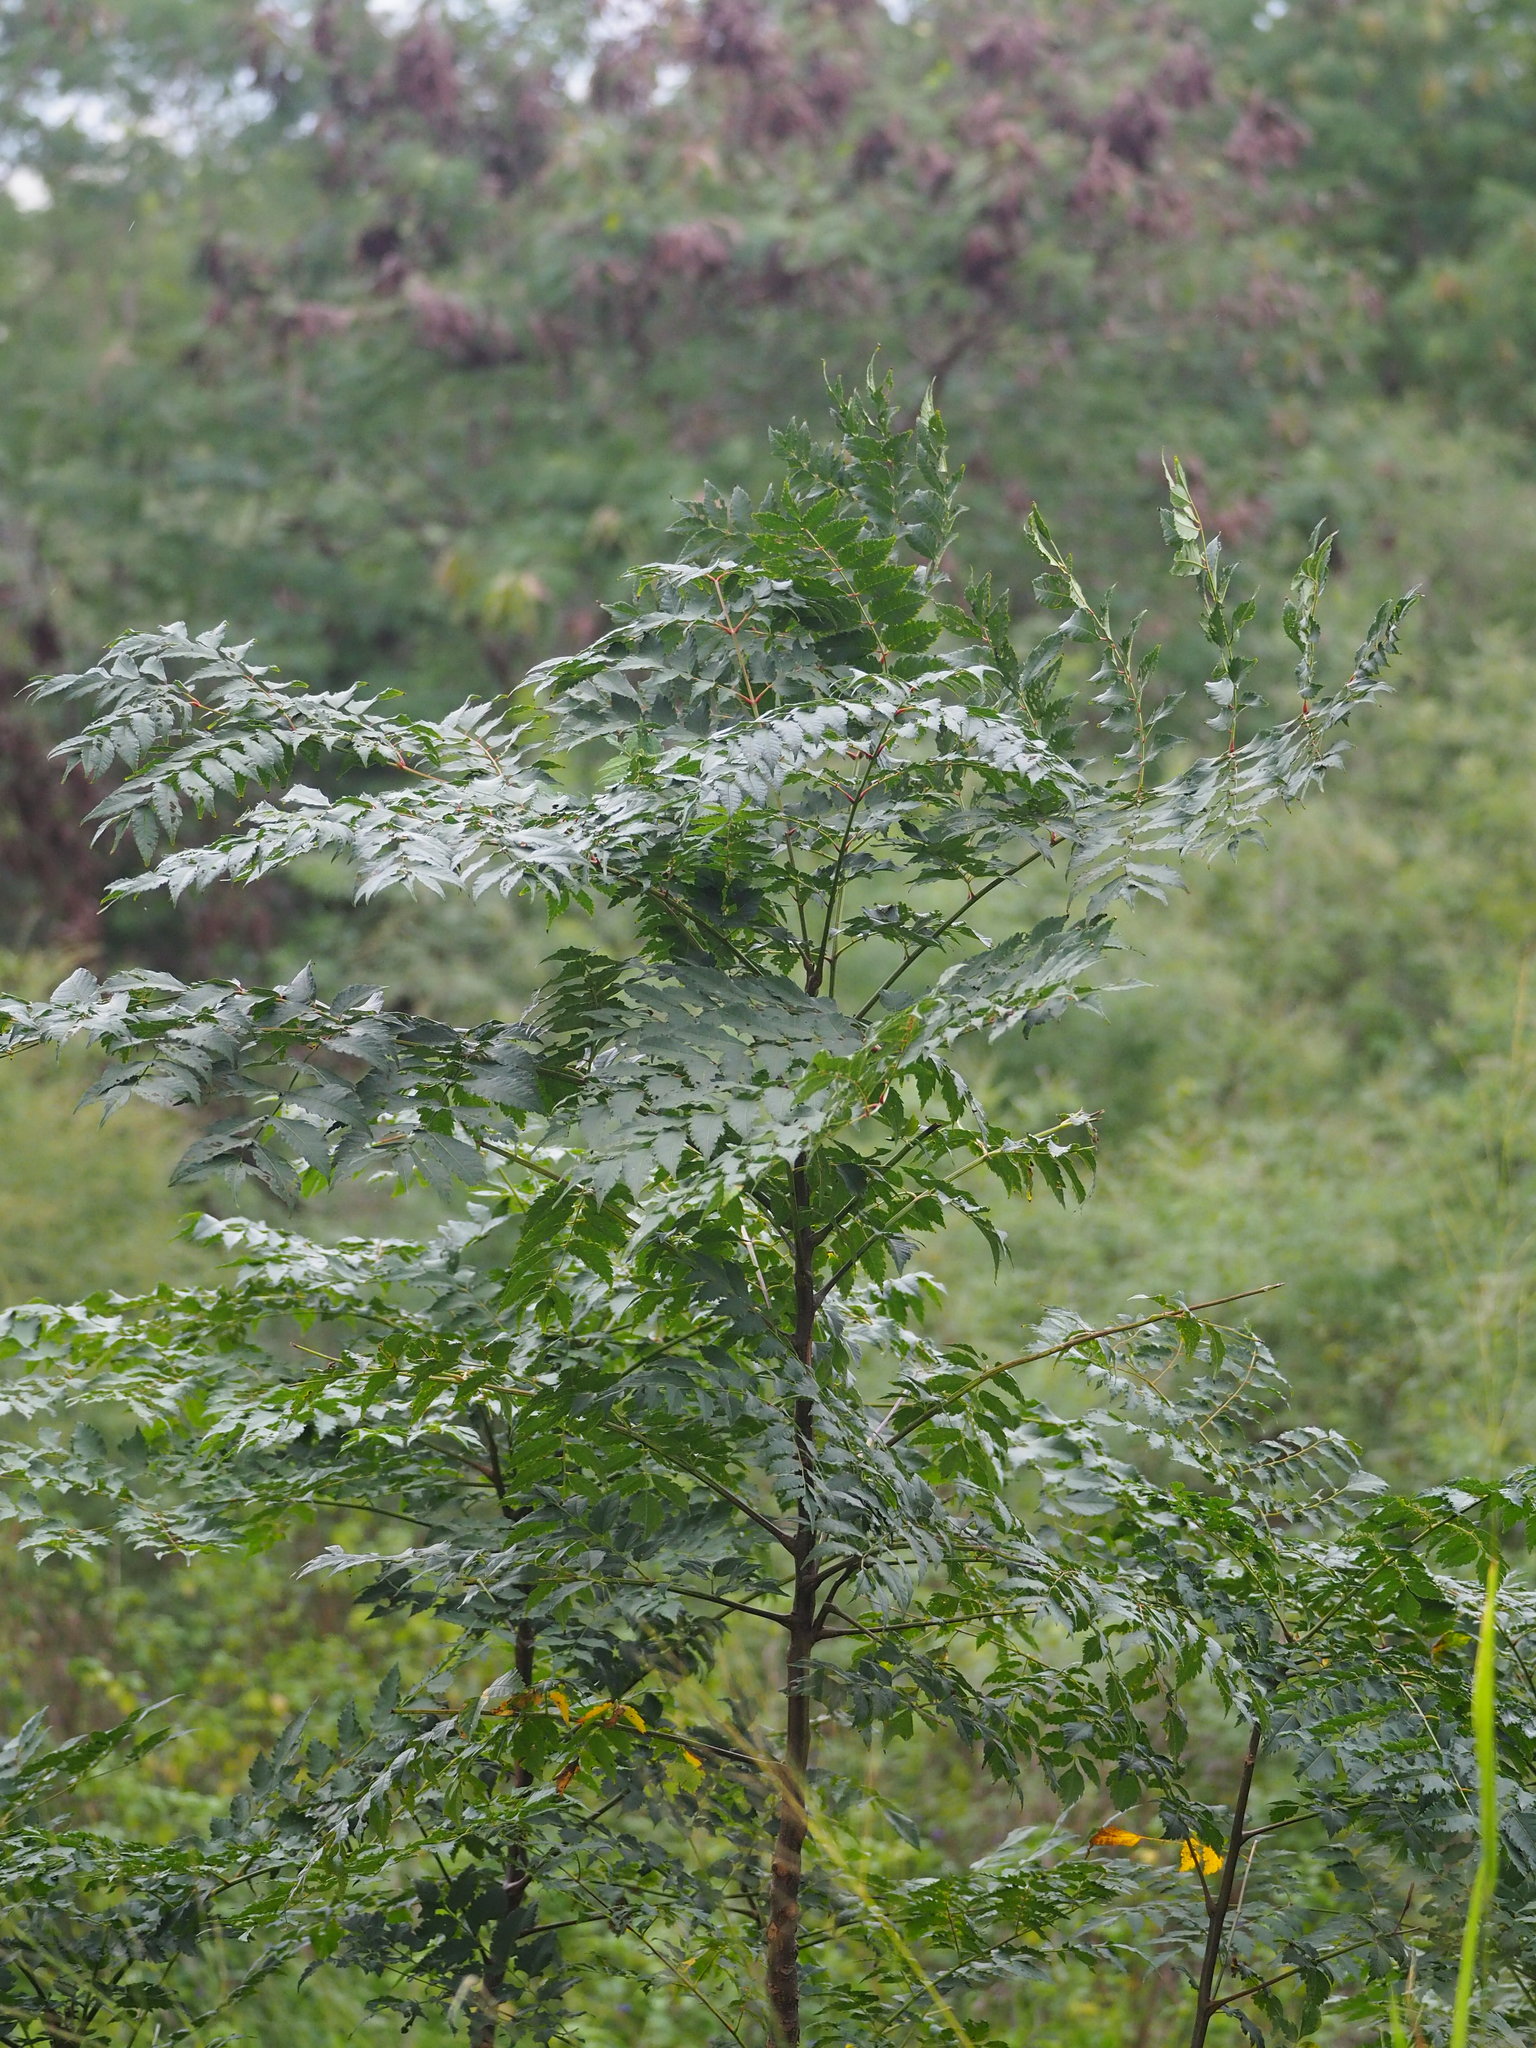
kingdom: Plantae
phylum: Tracheophyta
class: Magnoliopsida
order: Sapindales
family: Meliaceae
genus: Melia
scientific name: Melia azedarach
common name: Chinaberrytree
